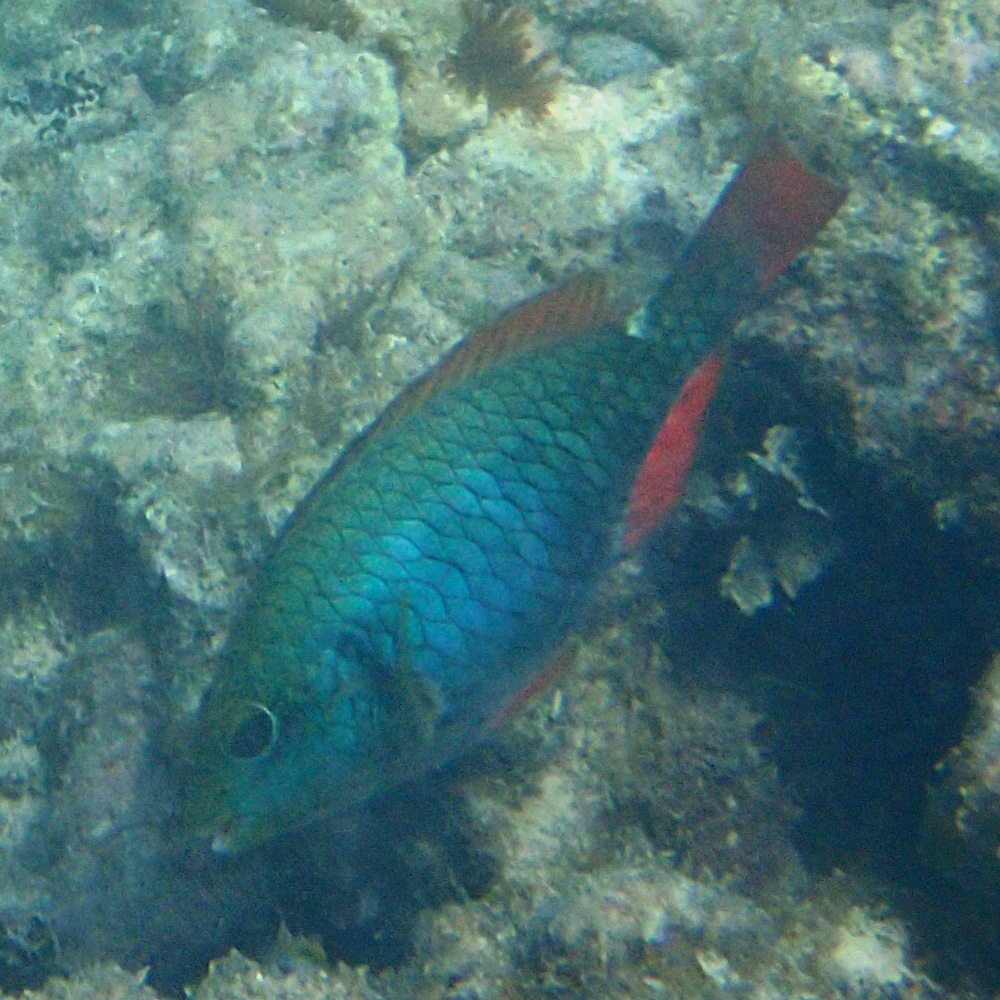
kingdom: Animalia
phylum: Chordata
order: Perciformes
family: Scaridae
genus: Sparisoma
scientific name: Sparisoma aurofrenatum
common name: Redband parrotfish
